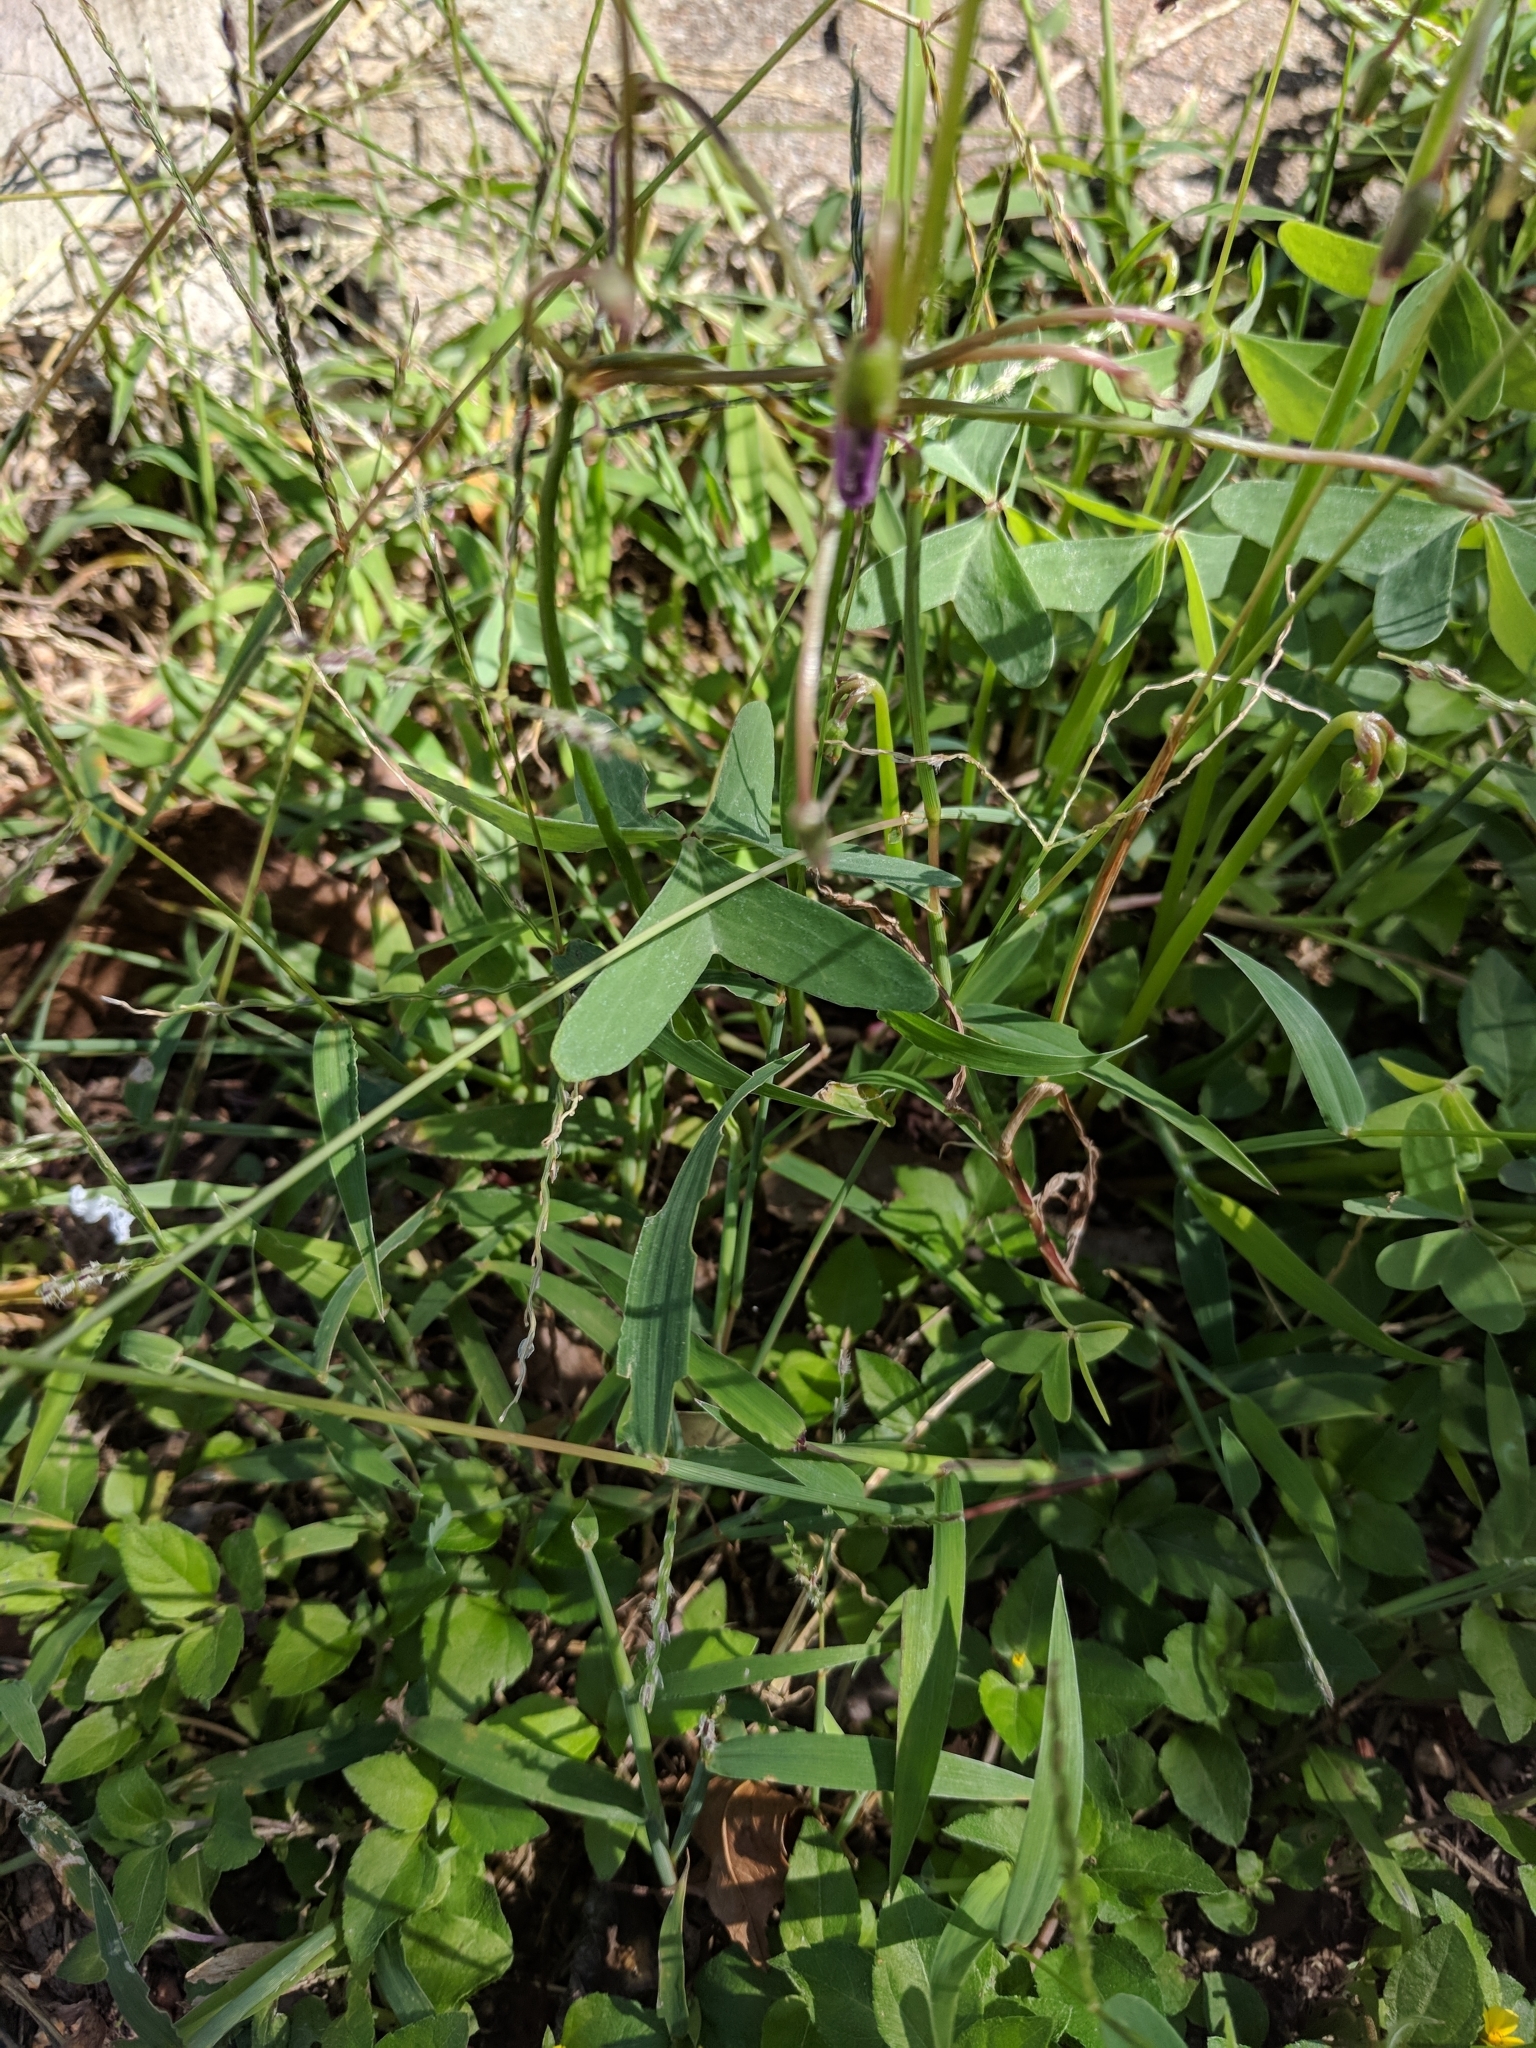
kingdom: Plantae
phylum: Tracheophyta
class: Magnoliopsida
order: Oxalidales
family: Oxalidaceae
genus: Oxalis
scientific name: Oxalis drummondii
